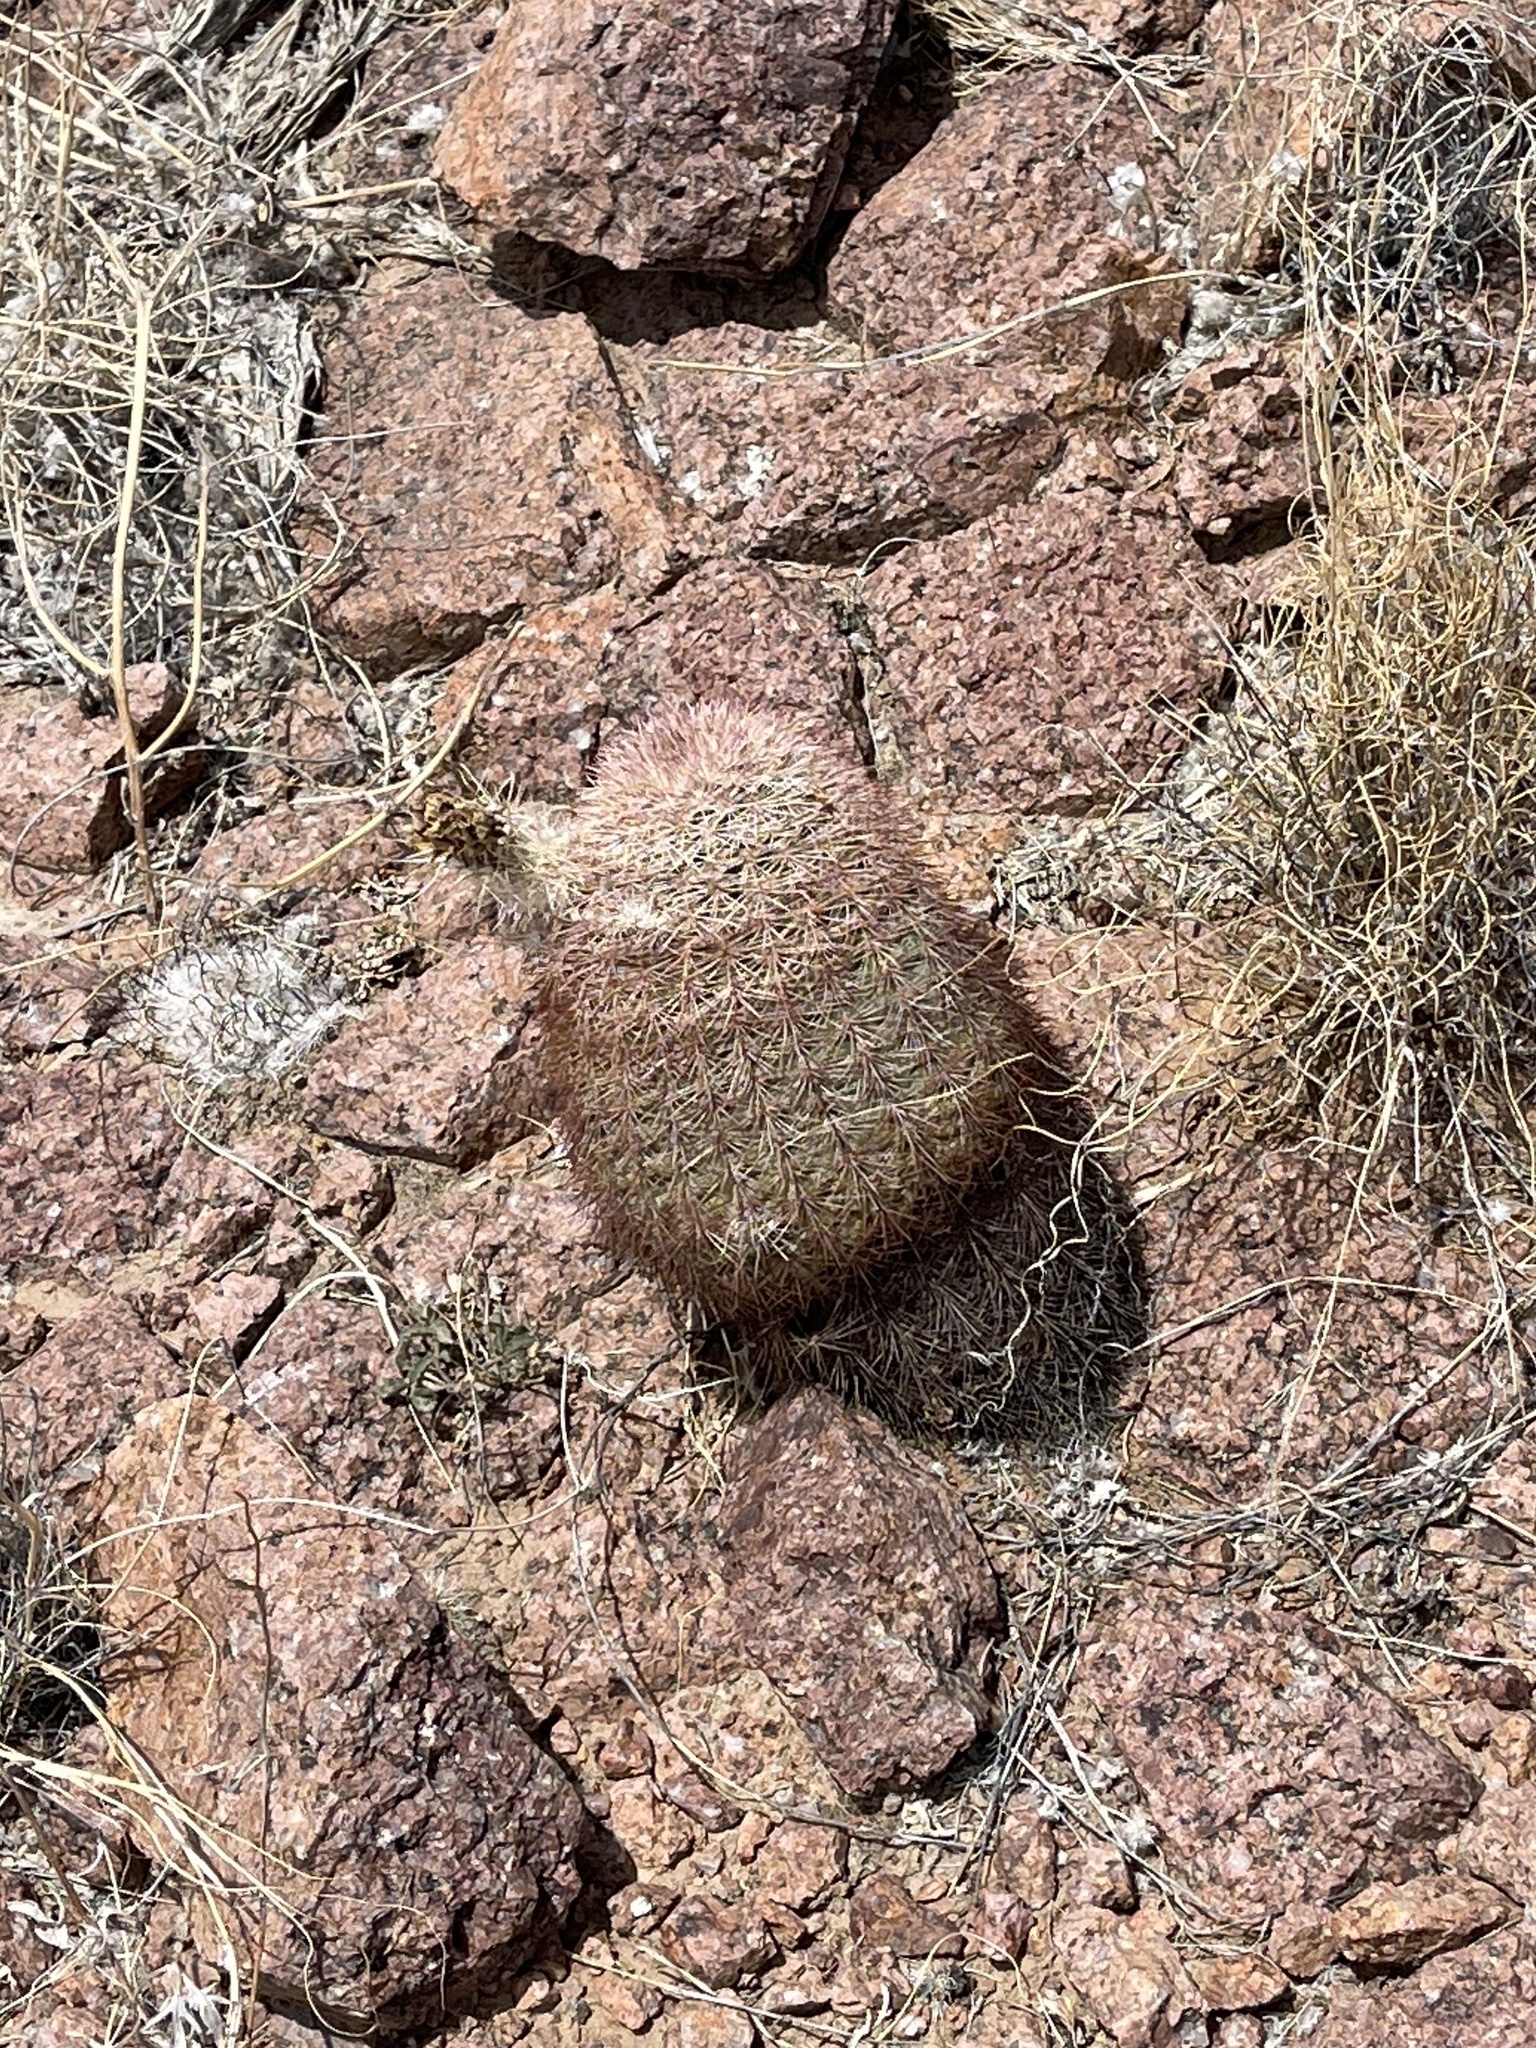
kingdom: Plantae
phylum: Tracheophyta
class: Magnoliopsida
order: Caryophyllales
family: Cactaceae
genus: Echinocereus
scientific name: Echinocereus dasyacanthus
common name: Spiny hedgehog cactus
